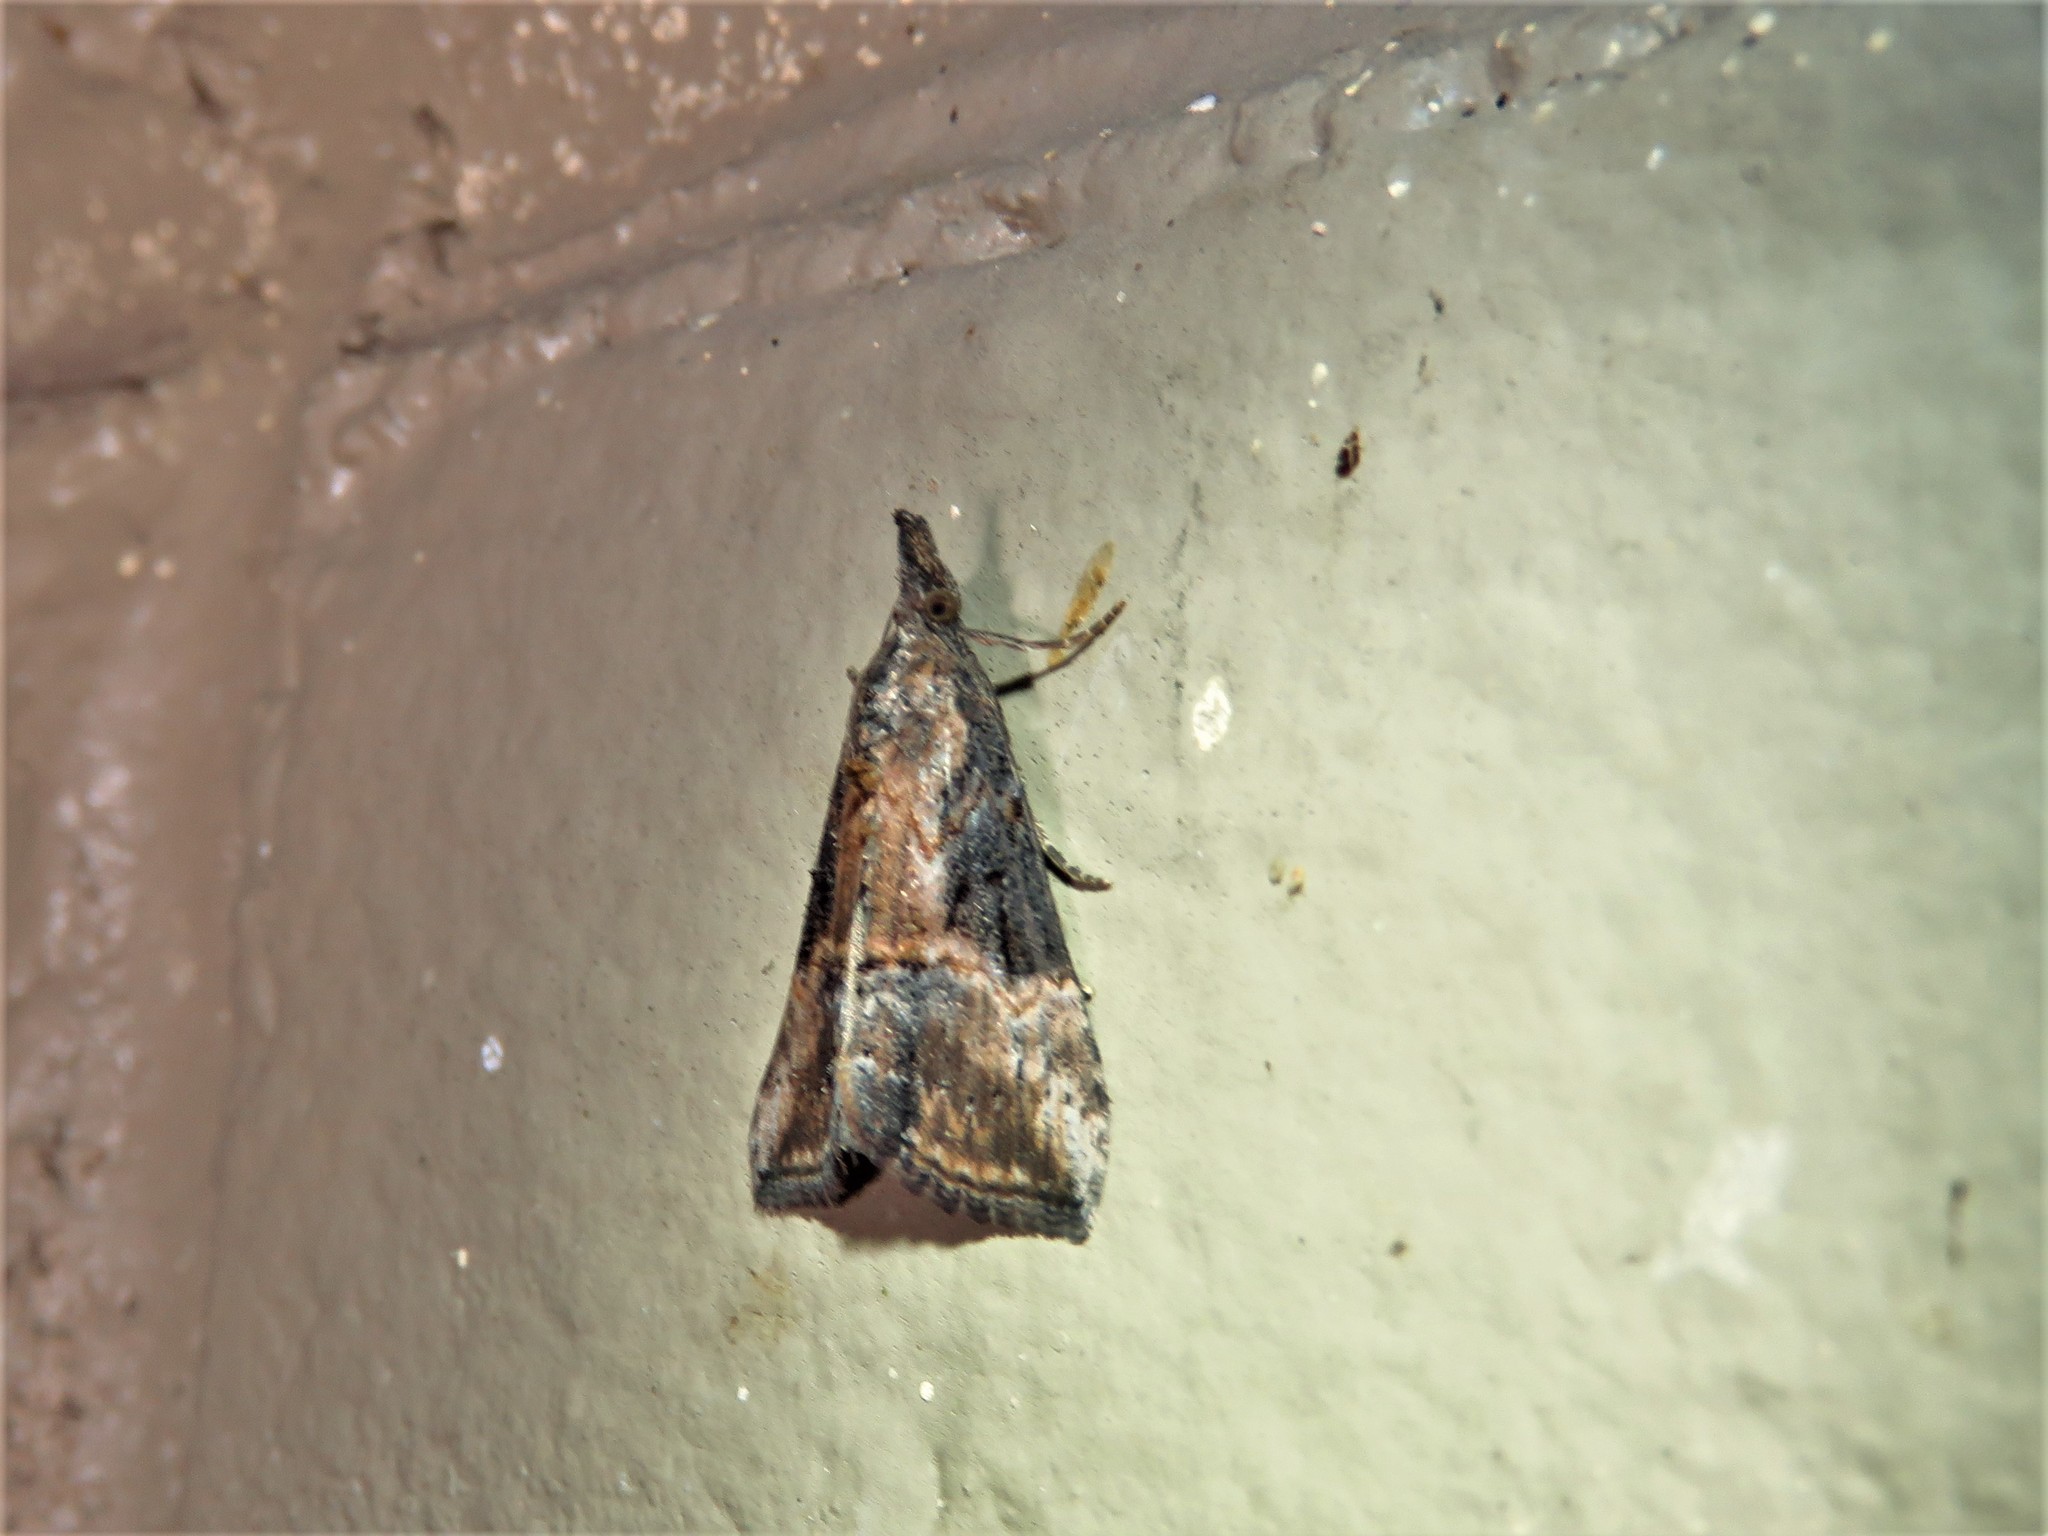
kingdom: Animalia
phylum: Arthropoda
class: Insecta
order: Lepidoptera
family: Erebidae
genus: Hypena
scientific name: Hypena scabra
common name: Green cloverworm
